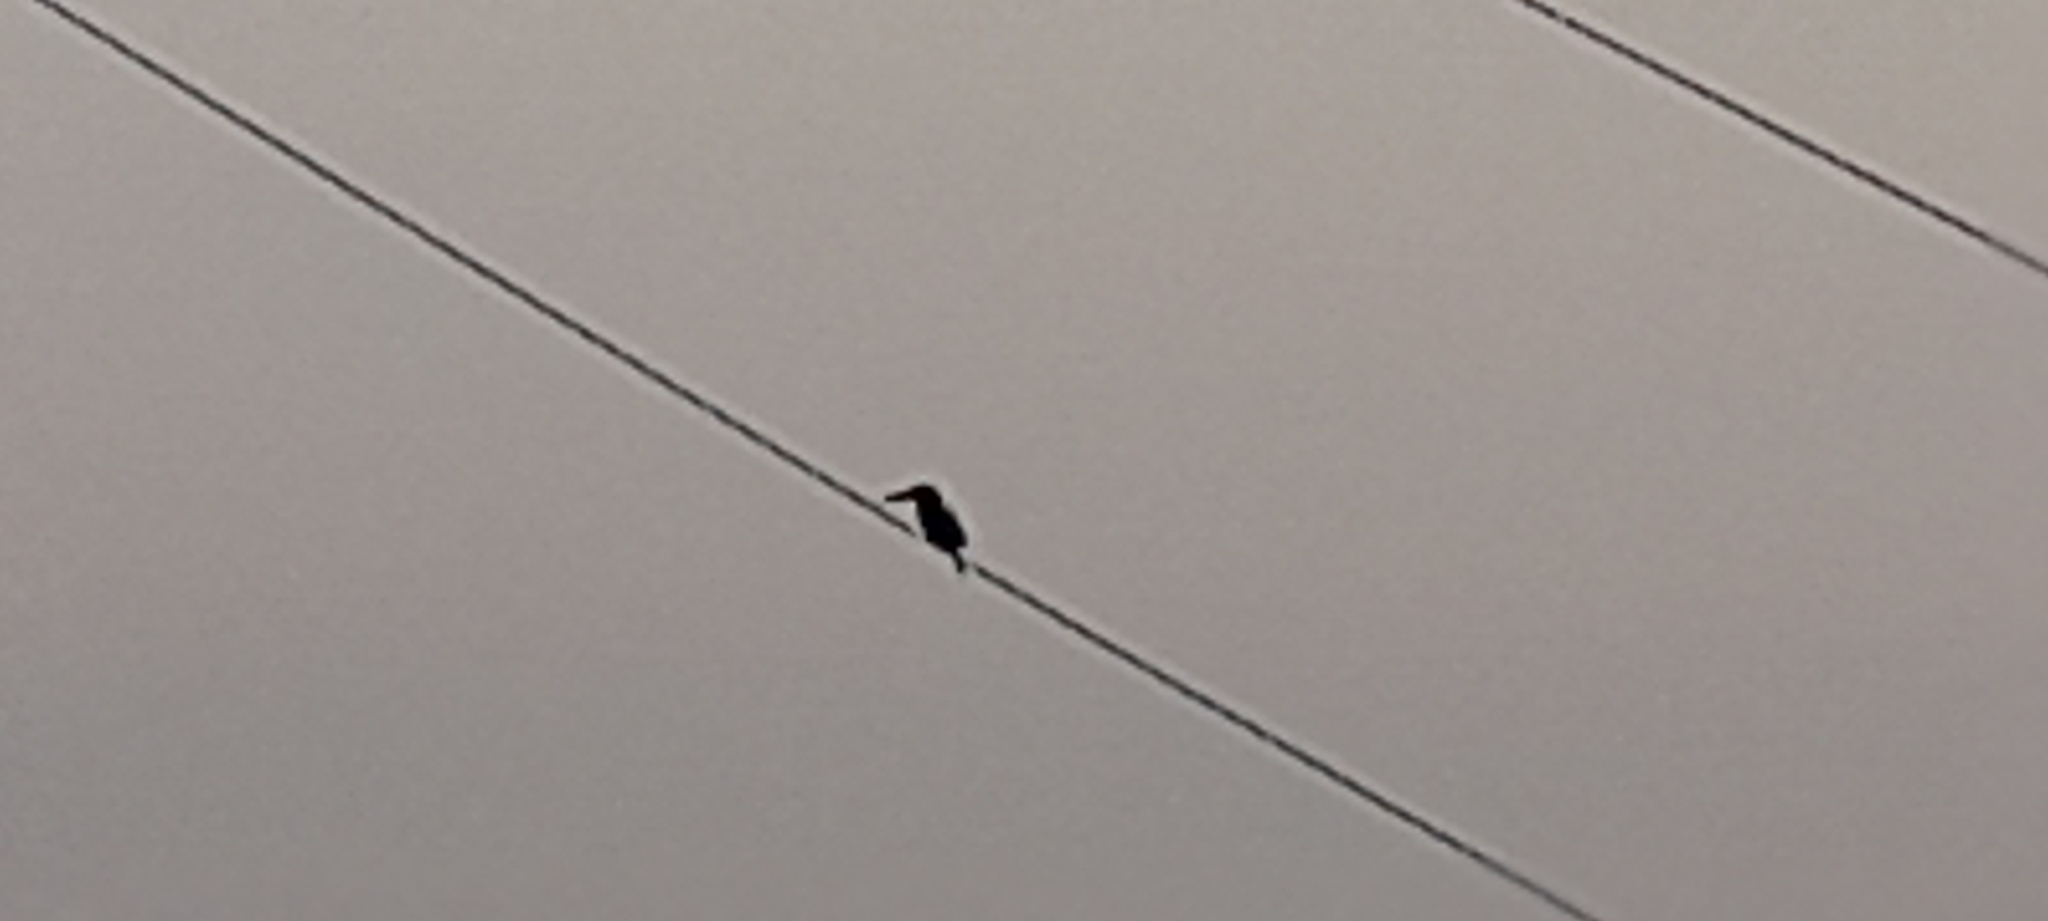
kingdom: Animalia
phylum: Chordata
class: Aves
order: Coraciiformes
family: Alcedinidae
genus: Halcyon
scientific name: Halcyon smyrnensis
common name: White-throated kingfisher
